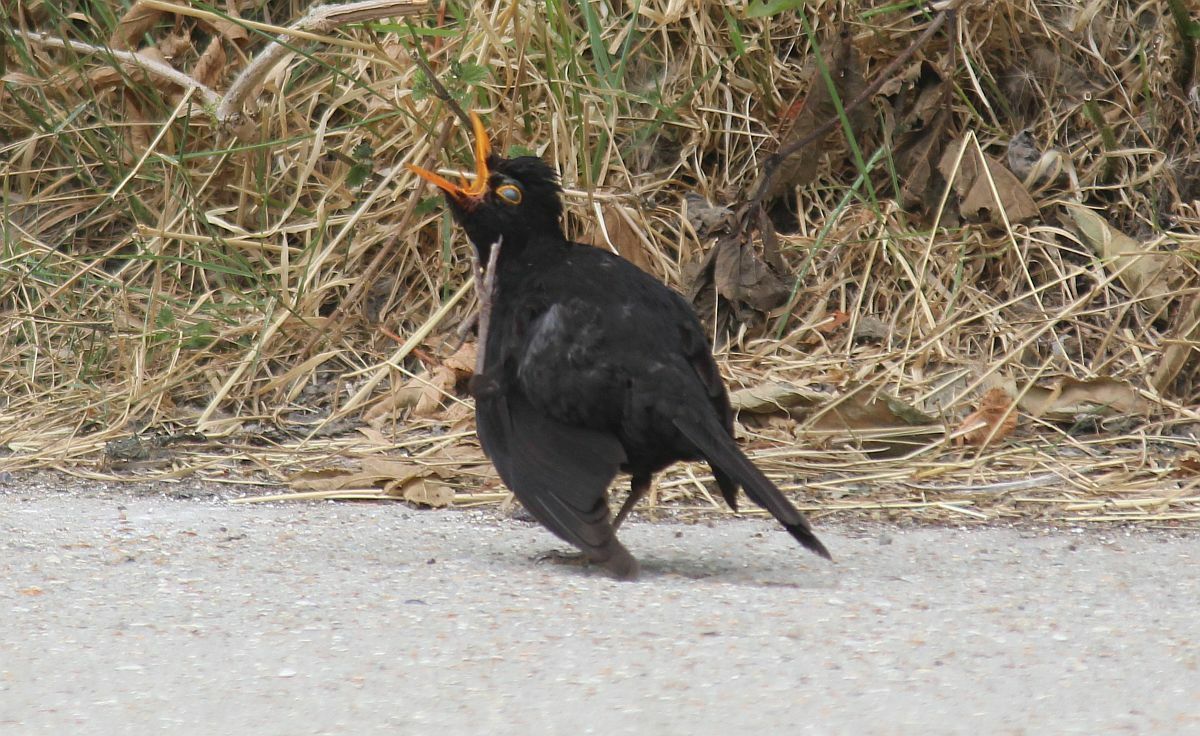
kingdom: Animalia
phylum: Chordata
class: Aves
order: Passeriformes
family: Turdidae
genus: Turdus
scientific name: Turdus merula
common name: Common blackbird
